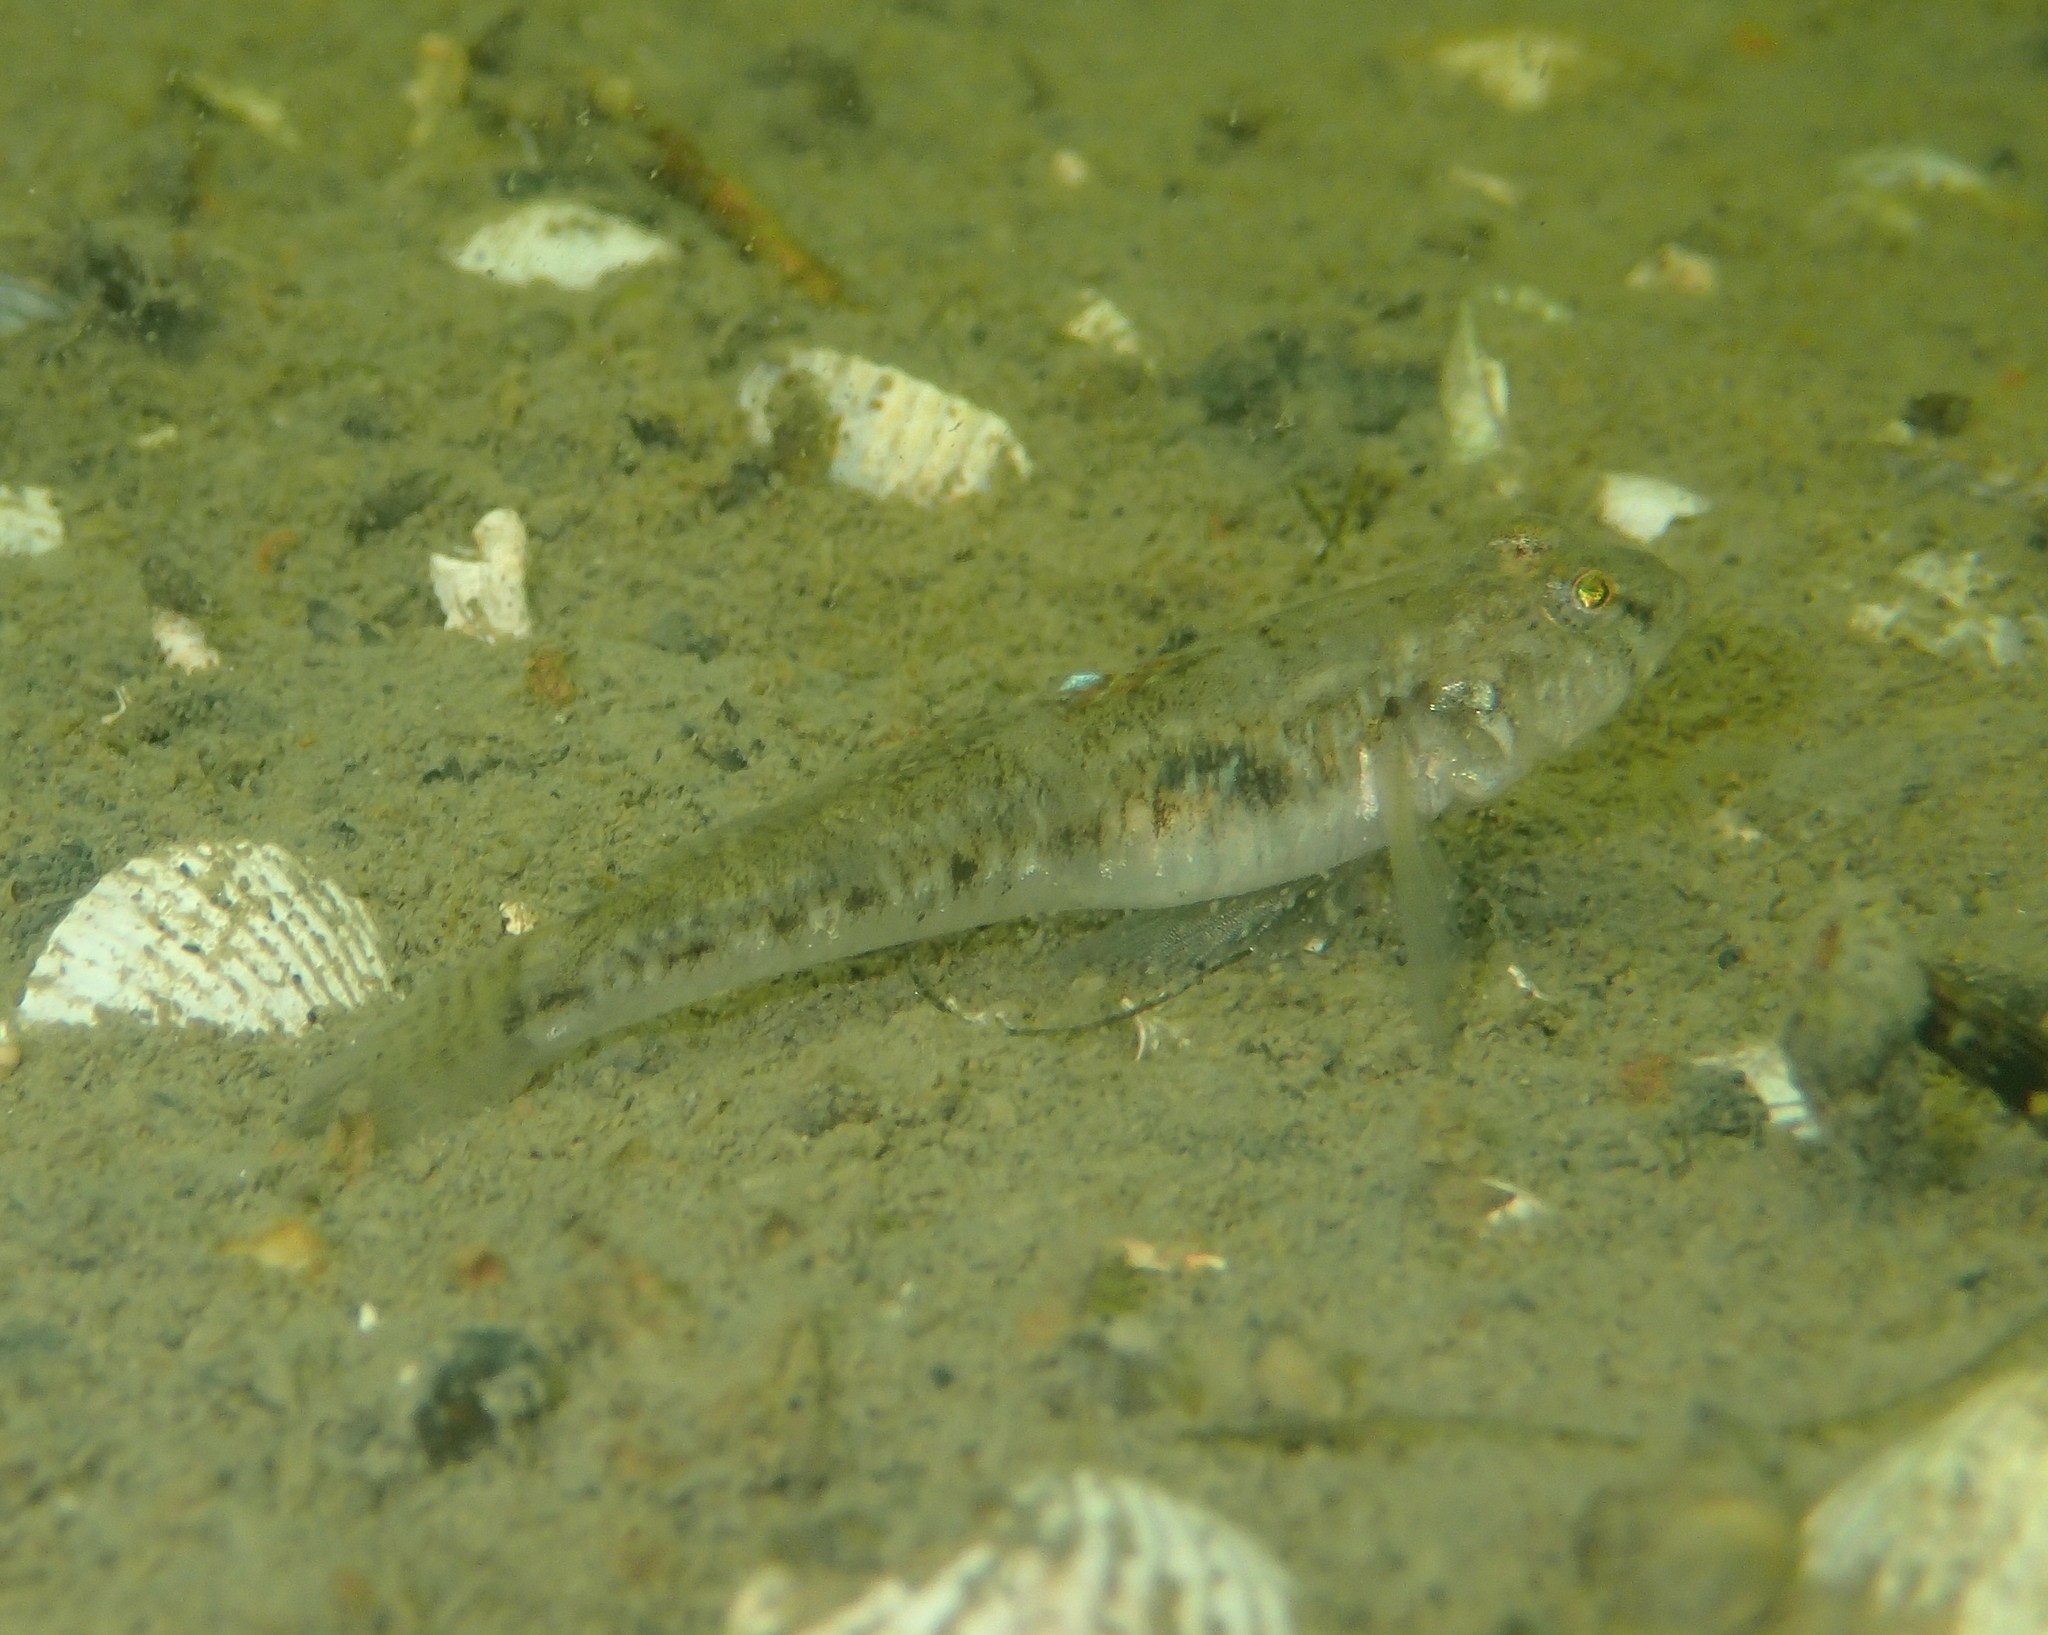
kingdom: Animalia
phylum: Chordata
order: Perciformes
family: Gobiidae
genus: Pomatoschistus
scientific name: Pomatoschistus microps
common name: Common goby
